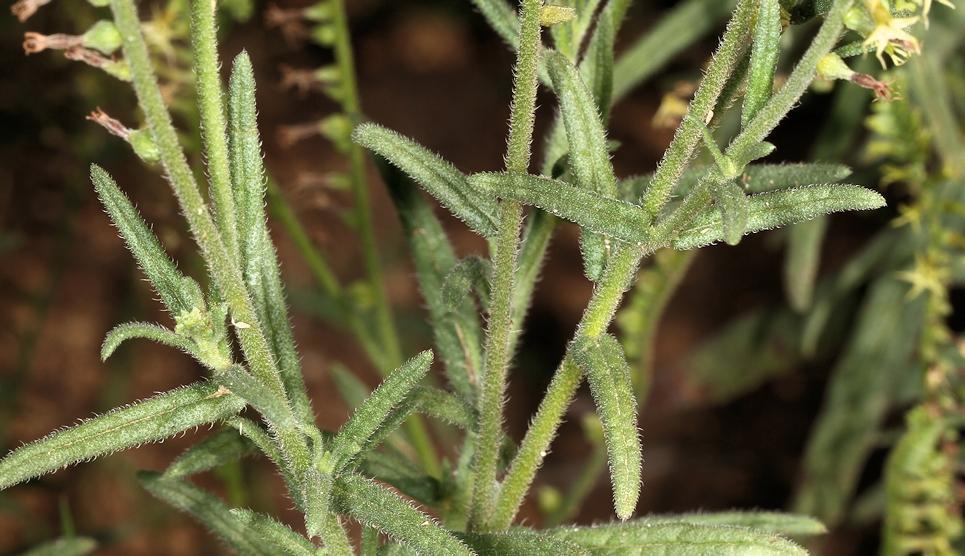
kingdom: Plantae
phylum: Tracheophyta
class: Magnoliopsida
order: Boraginales
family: Heliotropiaceae
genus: Heliotropium
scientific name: Heliotropium zeylanicum
